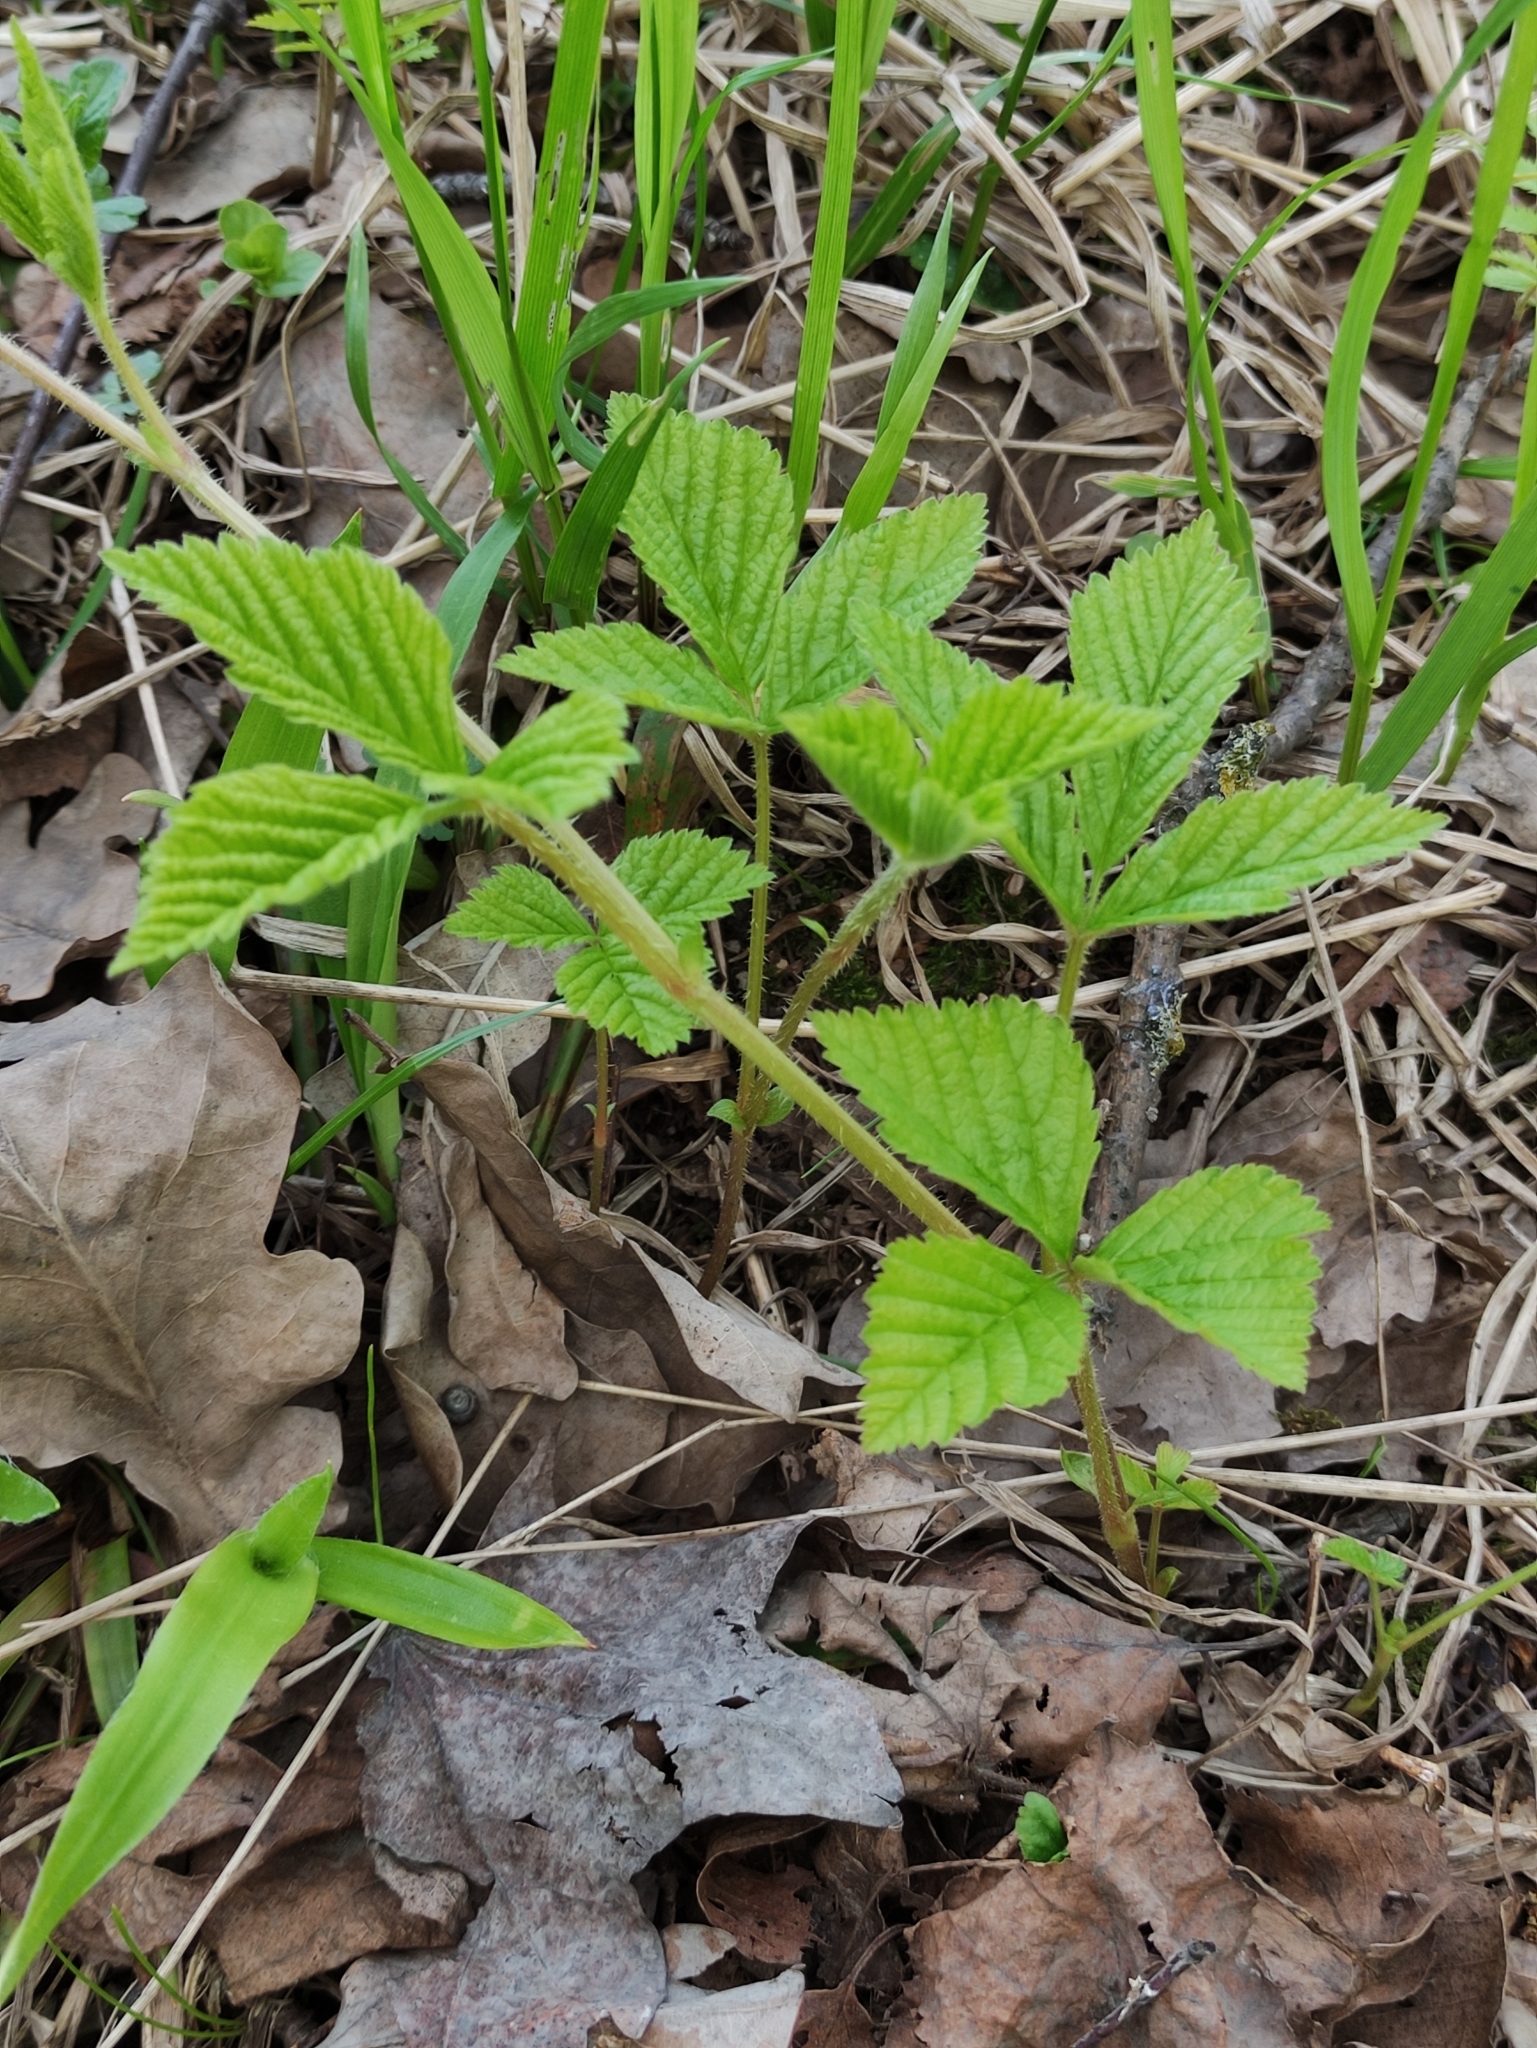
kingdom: Plantae
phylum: Tracheophyta
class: Magnoliopsida
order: Rosales
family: Rosaceae
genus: Rubus
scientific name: Rubus saxatilis
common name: Stone bramble
